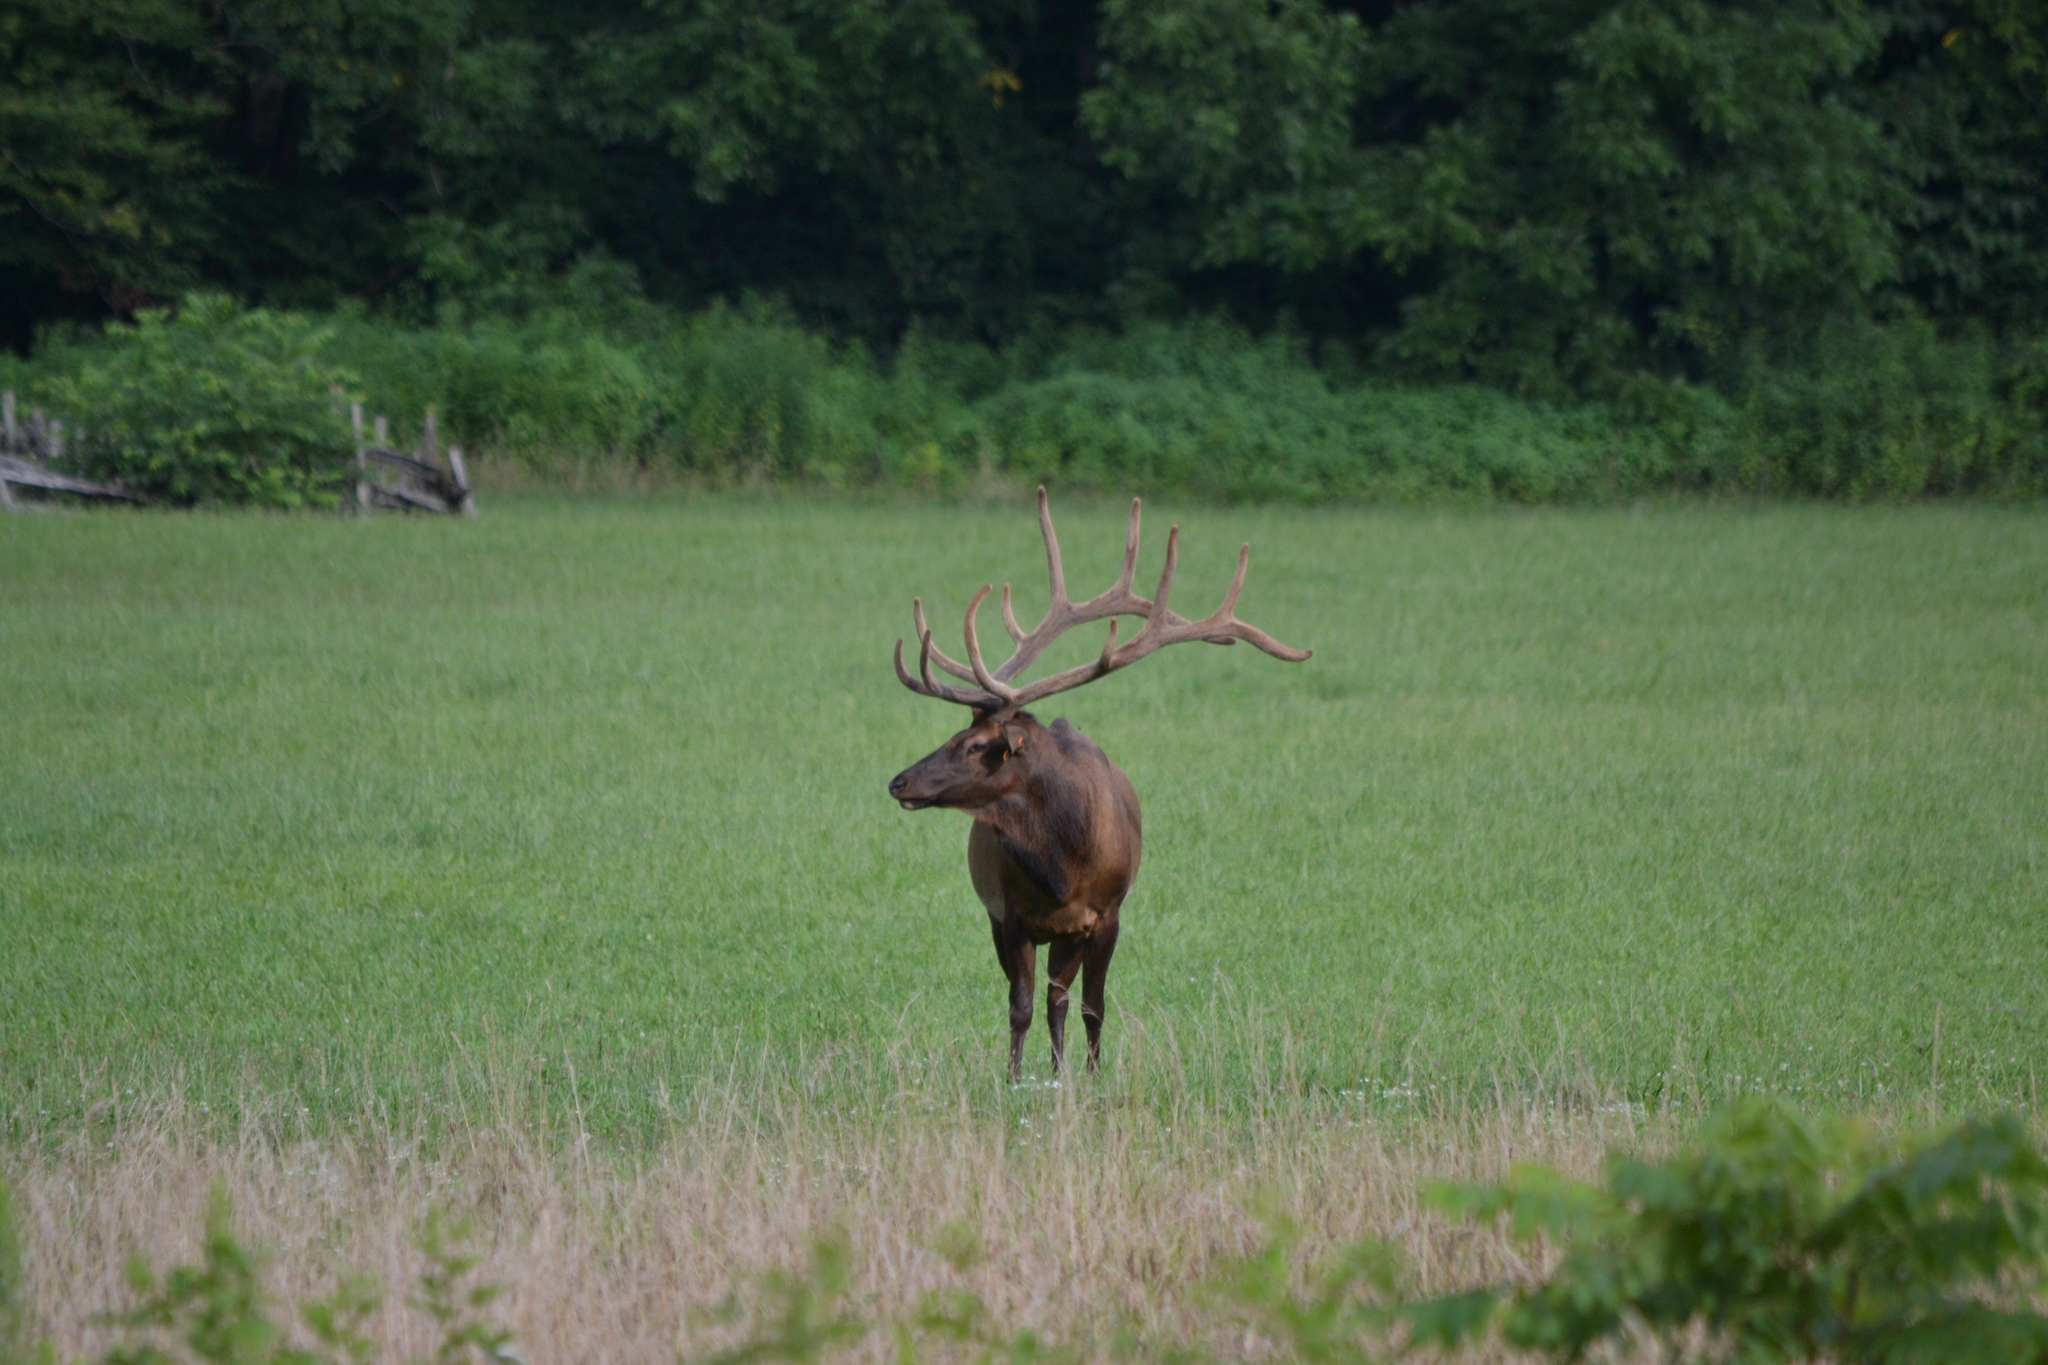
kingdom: Animalia
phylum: Chordata
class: Mammalia
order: Artiodactyla
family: Cervidae
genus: Cervus
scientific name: Cervus elaphus
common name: Red deer
